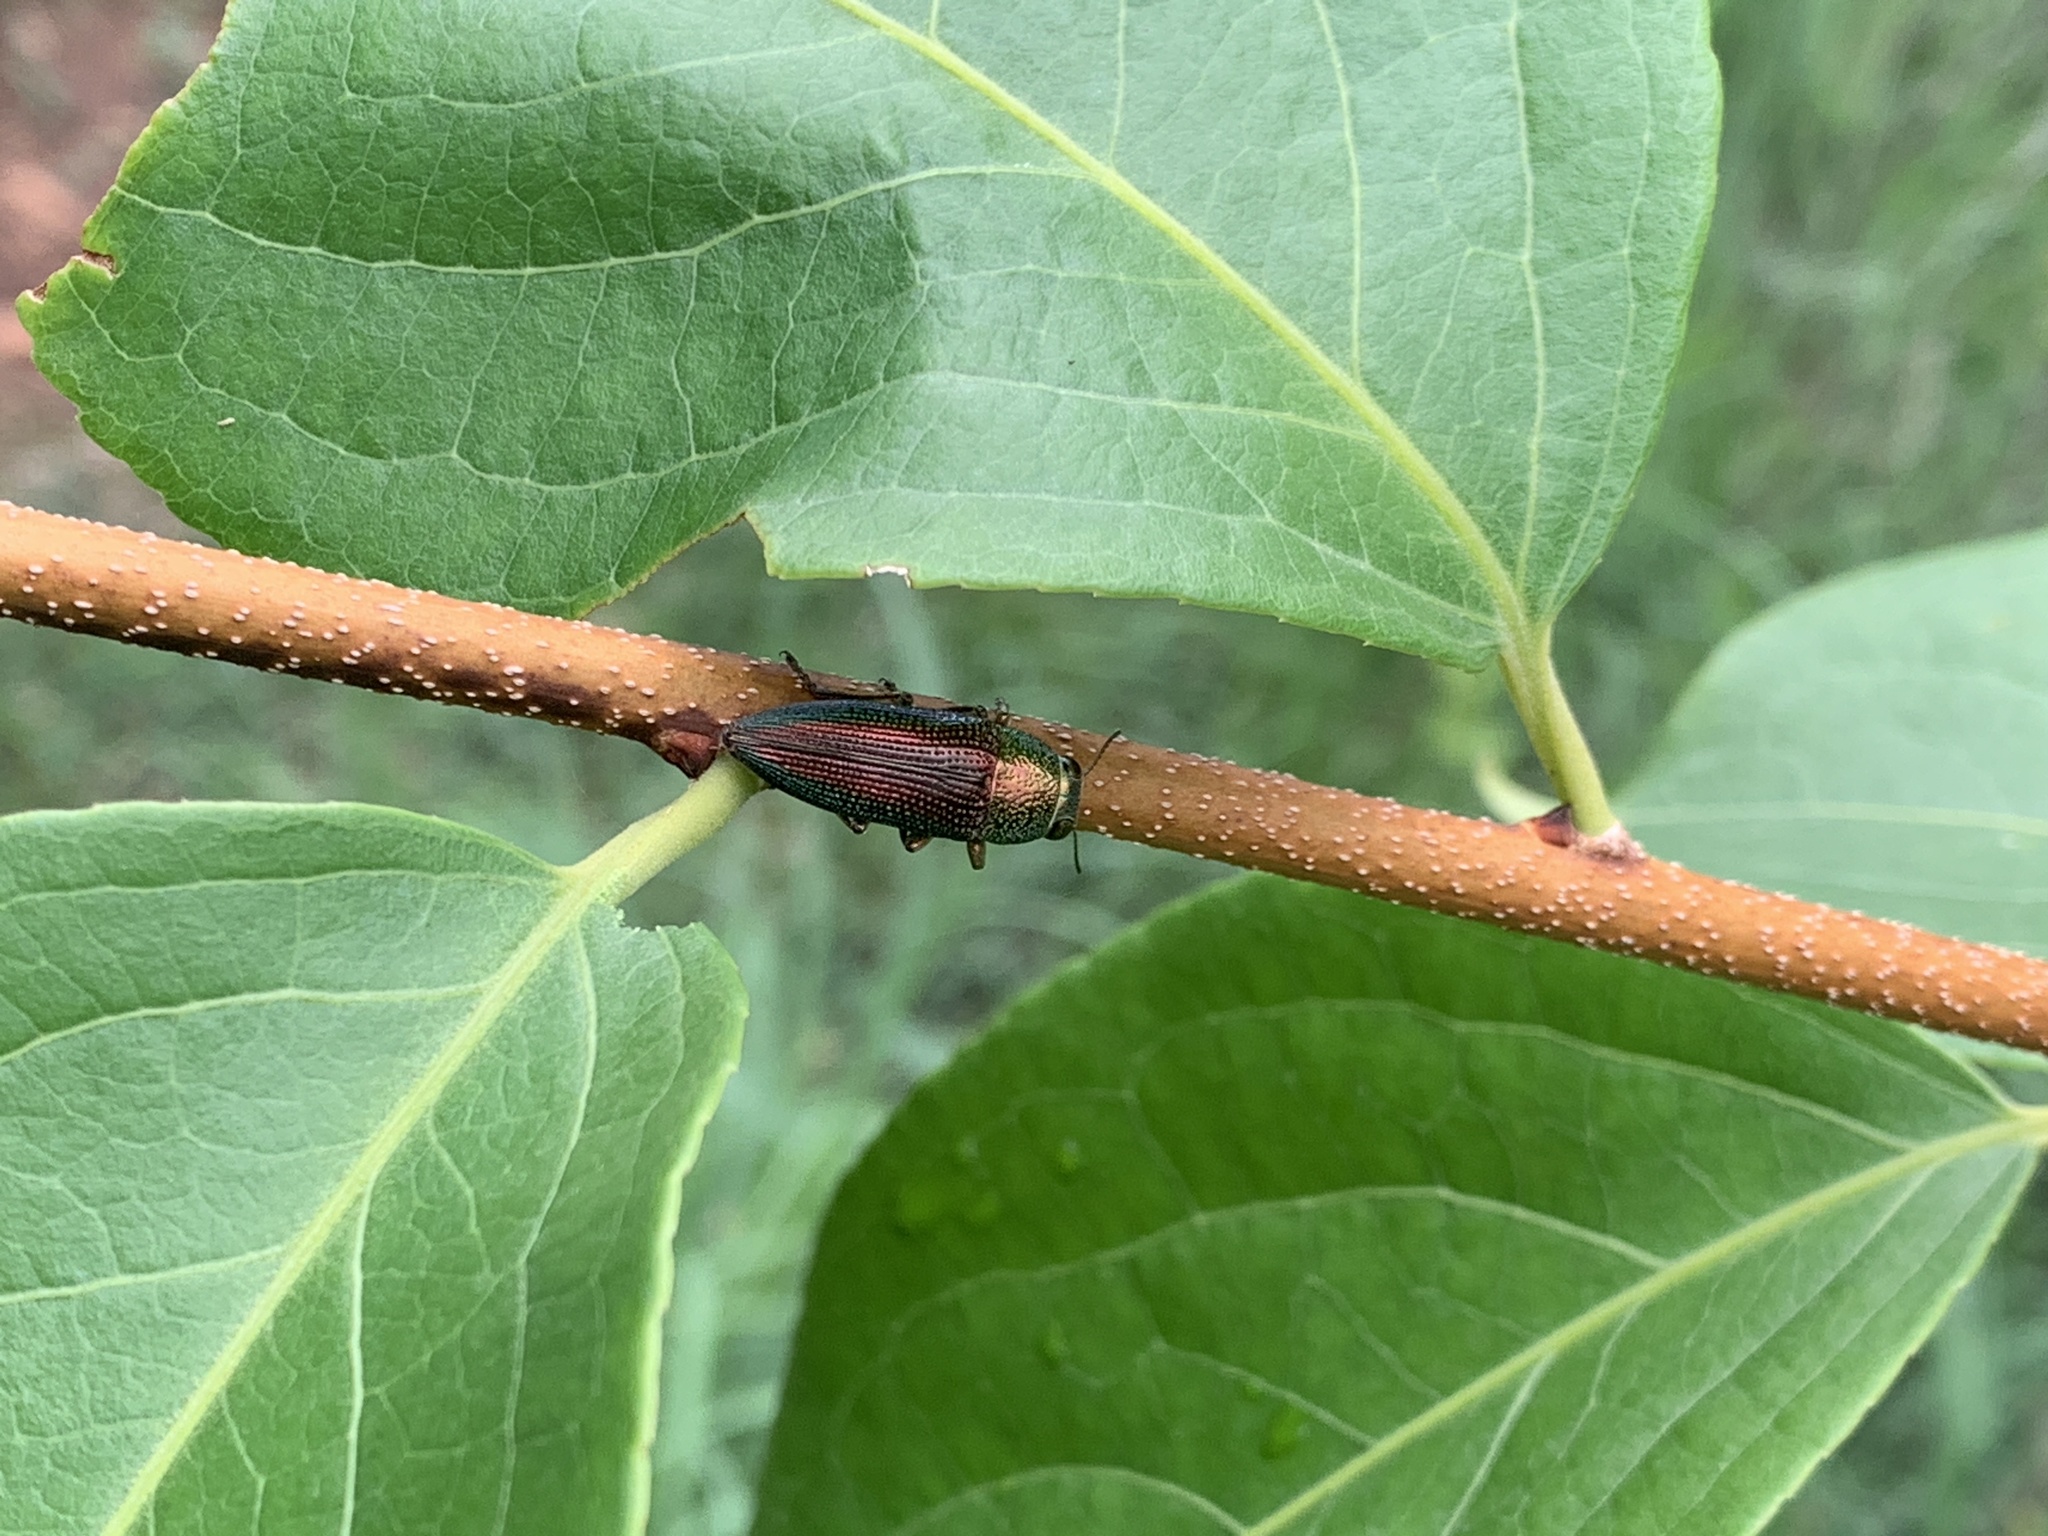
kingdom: Animalia
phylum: Arthropoda
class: Insecta
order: Coleoptera
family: Buprestidae
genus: Lampetis
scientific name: Lampetis fastuosa
